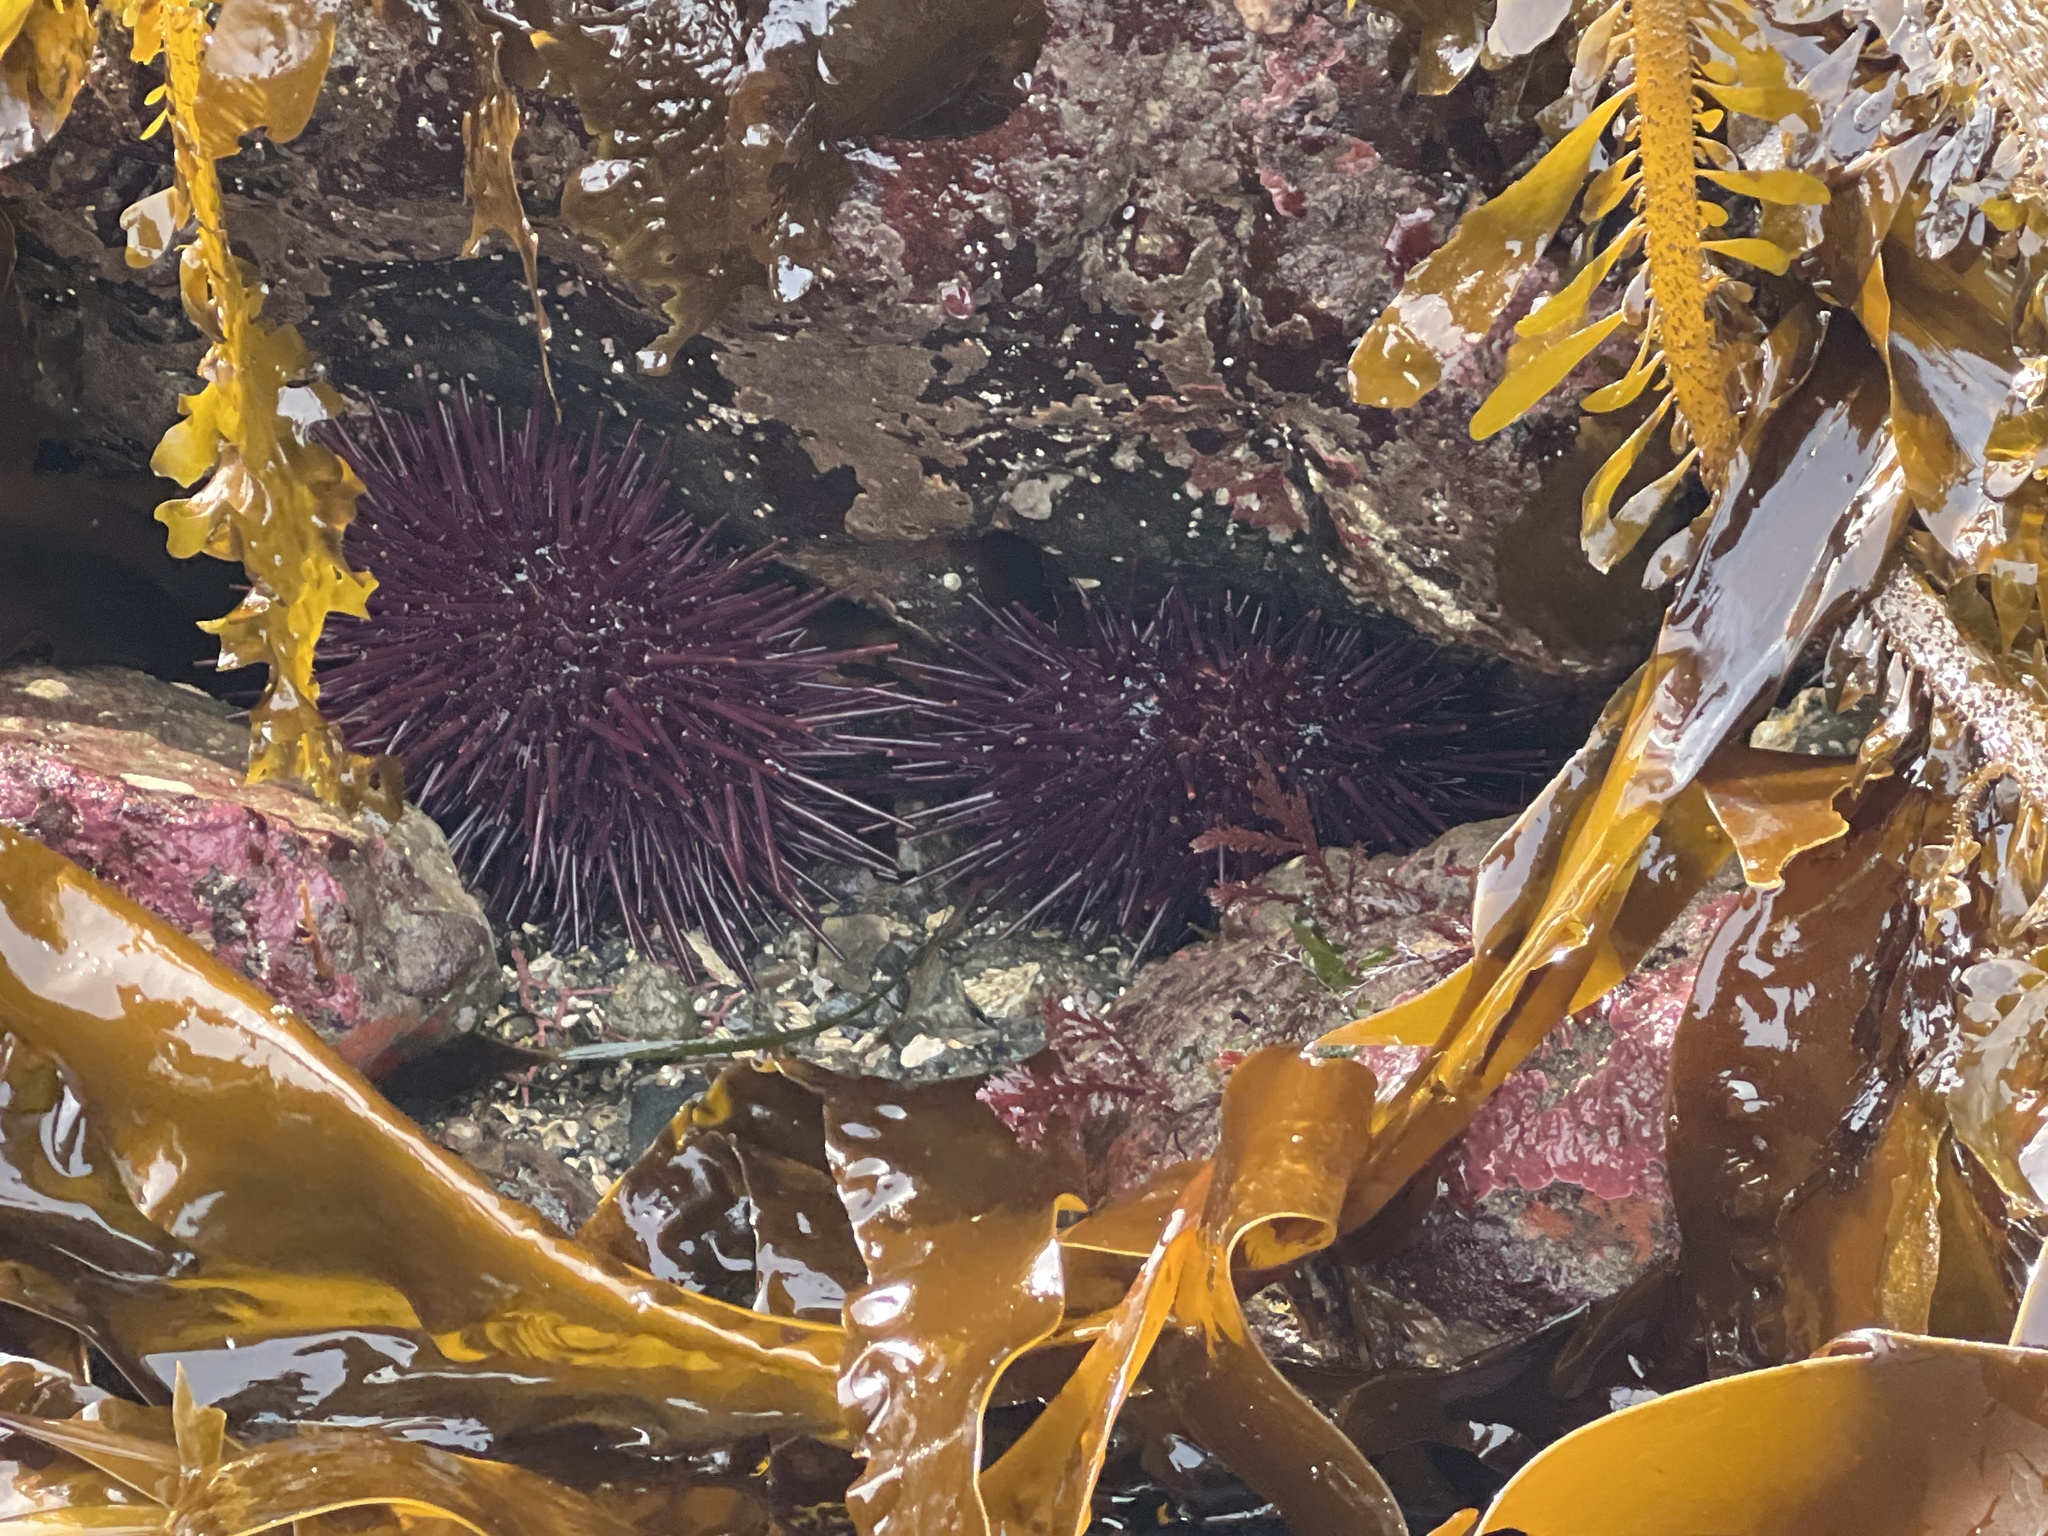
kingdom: Animalia
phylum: Echinodermata
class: Echinoidea
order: Camarodonta
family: Strongylocentrotidae
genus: Mesocentrotus
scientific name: Mesocentrotus franciscanus
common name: Red sea urchin
